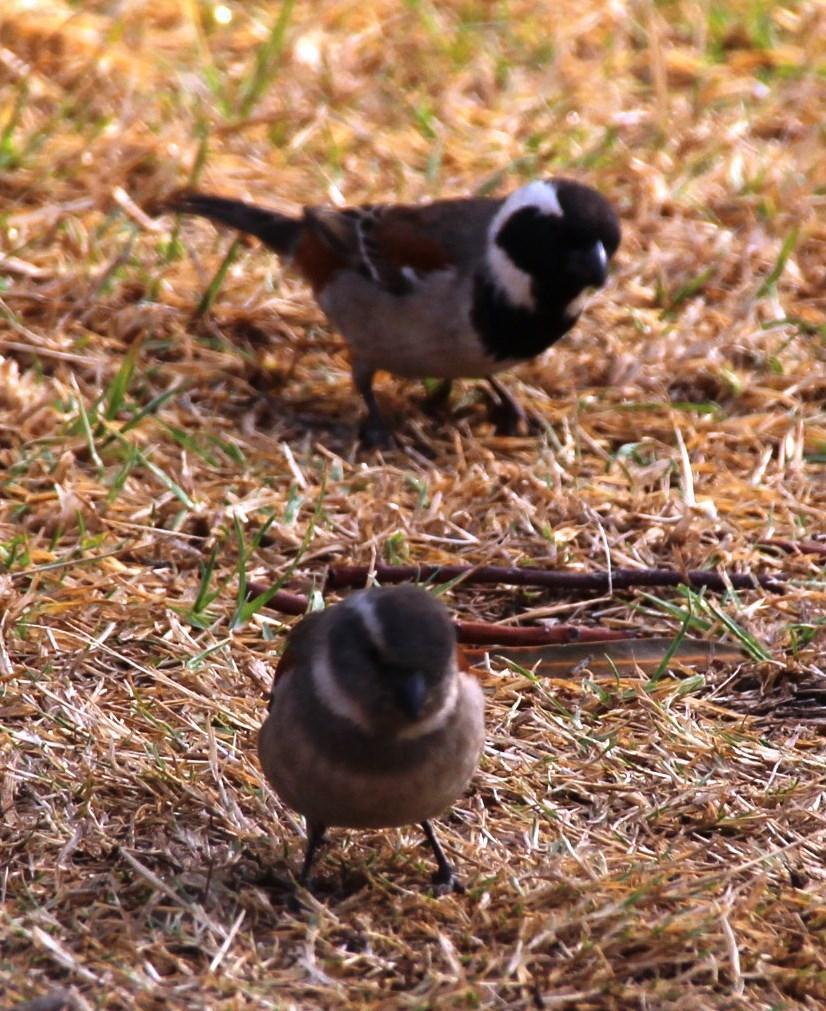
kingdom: Animalia
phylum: Chordata
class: Aves
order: Passeriformes
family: Passeridae
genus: Passer
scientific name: Passer melanurus
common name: Cape sparrow
